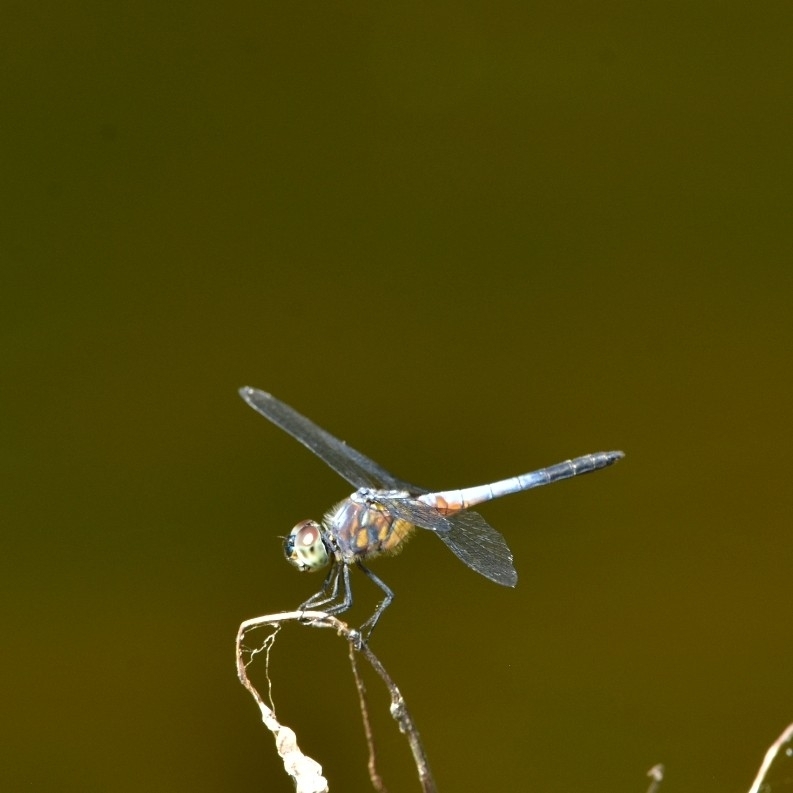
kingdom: Animalia
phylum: Arthropoda
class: Insecta
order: Odonata
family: Libellulidae
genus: Brachydiplax
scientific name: Brachydiplax chalybea
